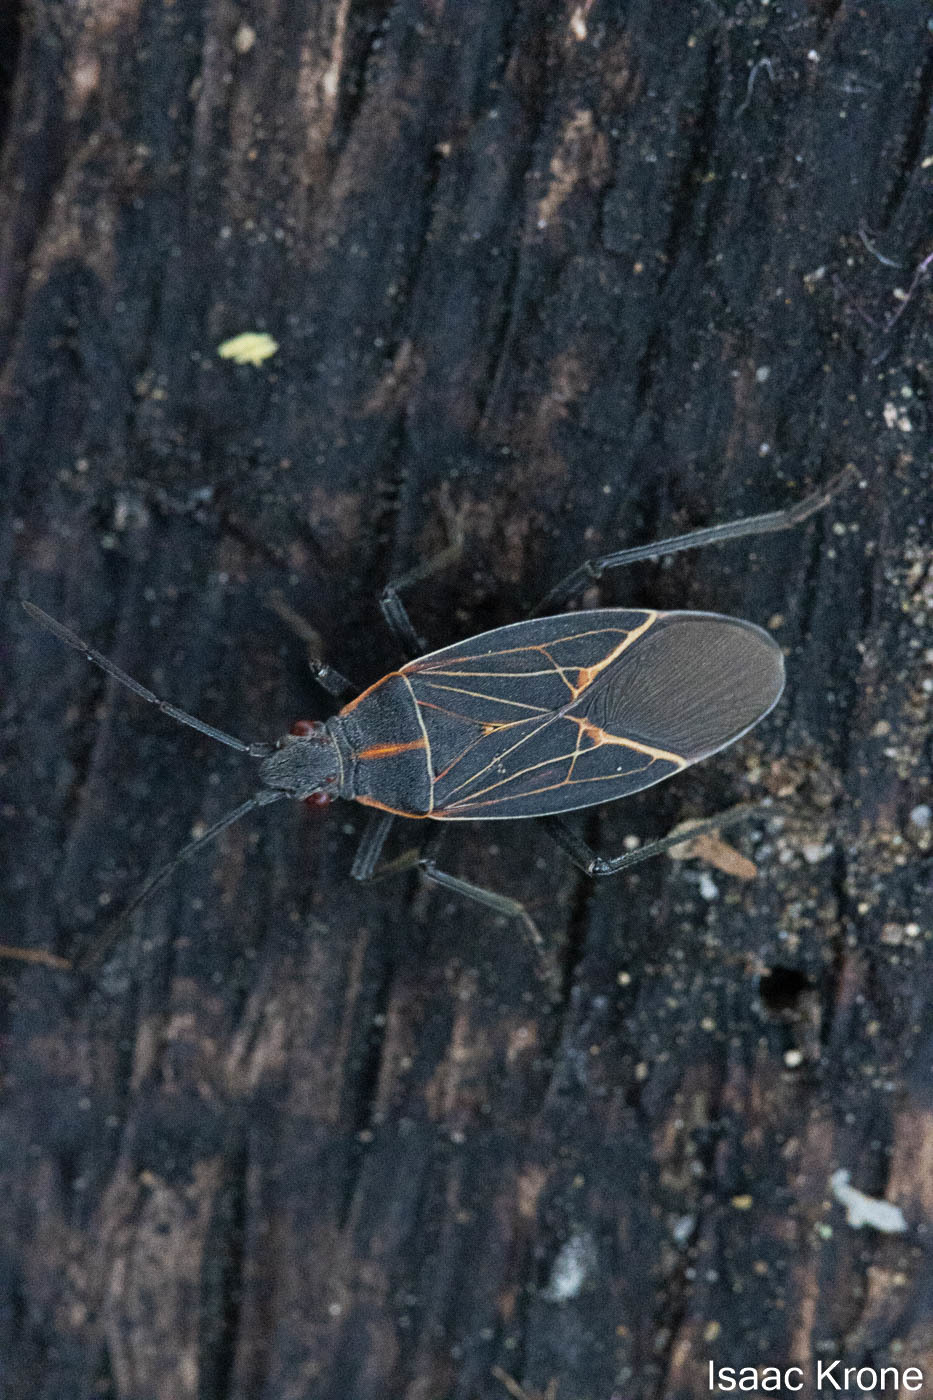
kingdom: Animalia
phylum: Arthropoda
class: Insecta
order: Hemiptera
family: Rhopalidae
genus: Boisea
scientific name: Boisea rubrolineata
